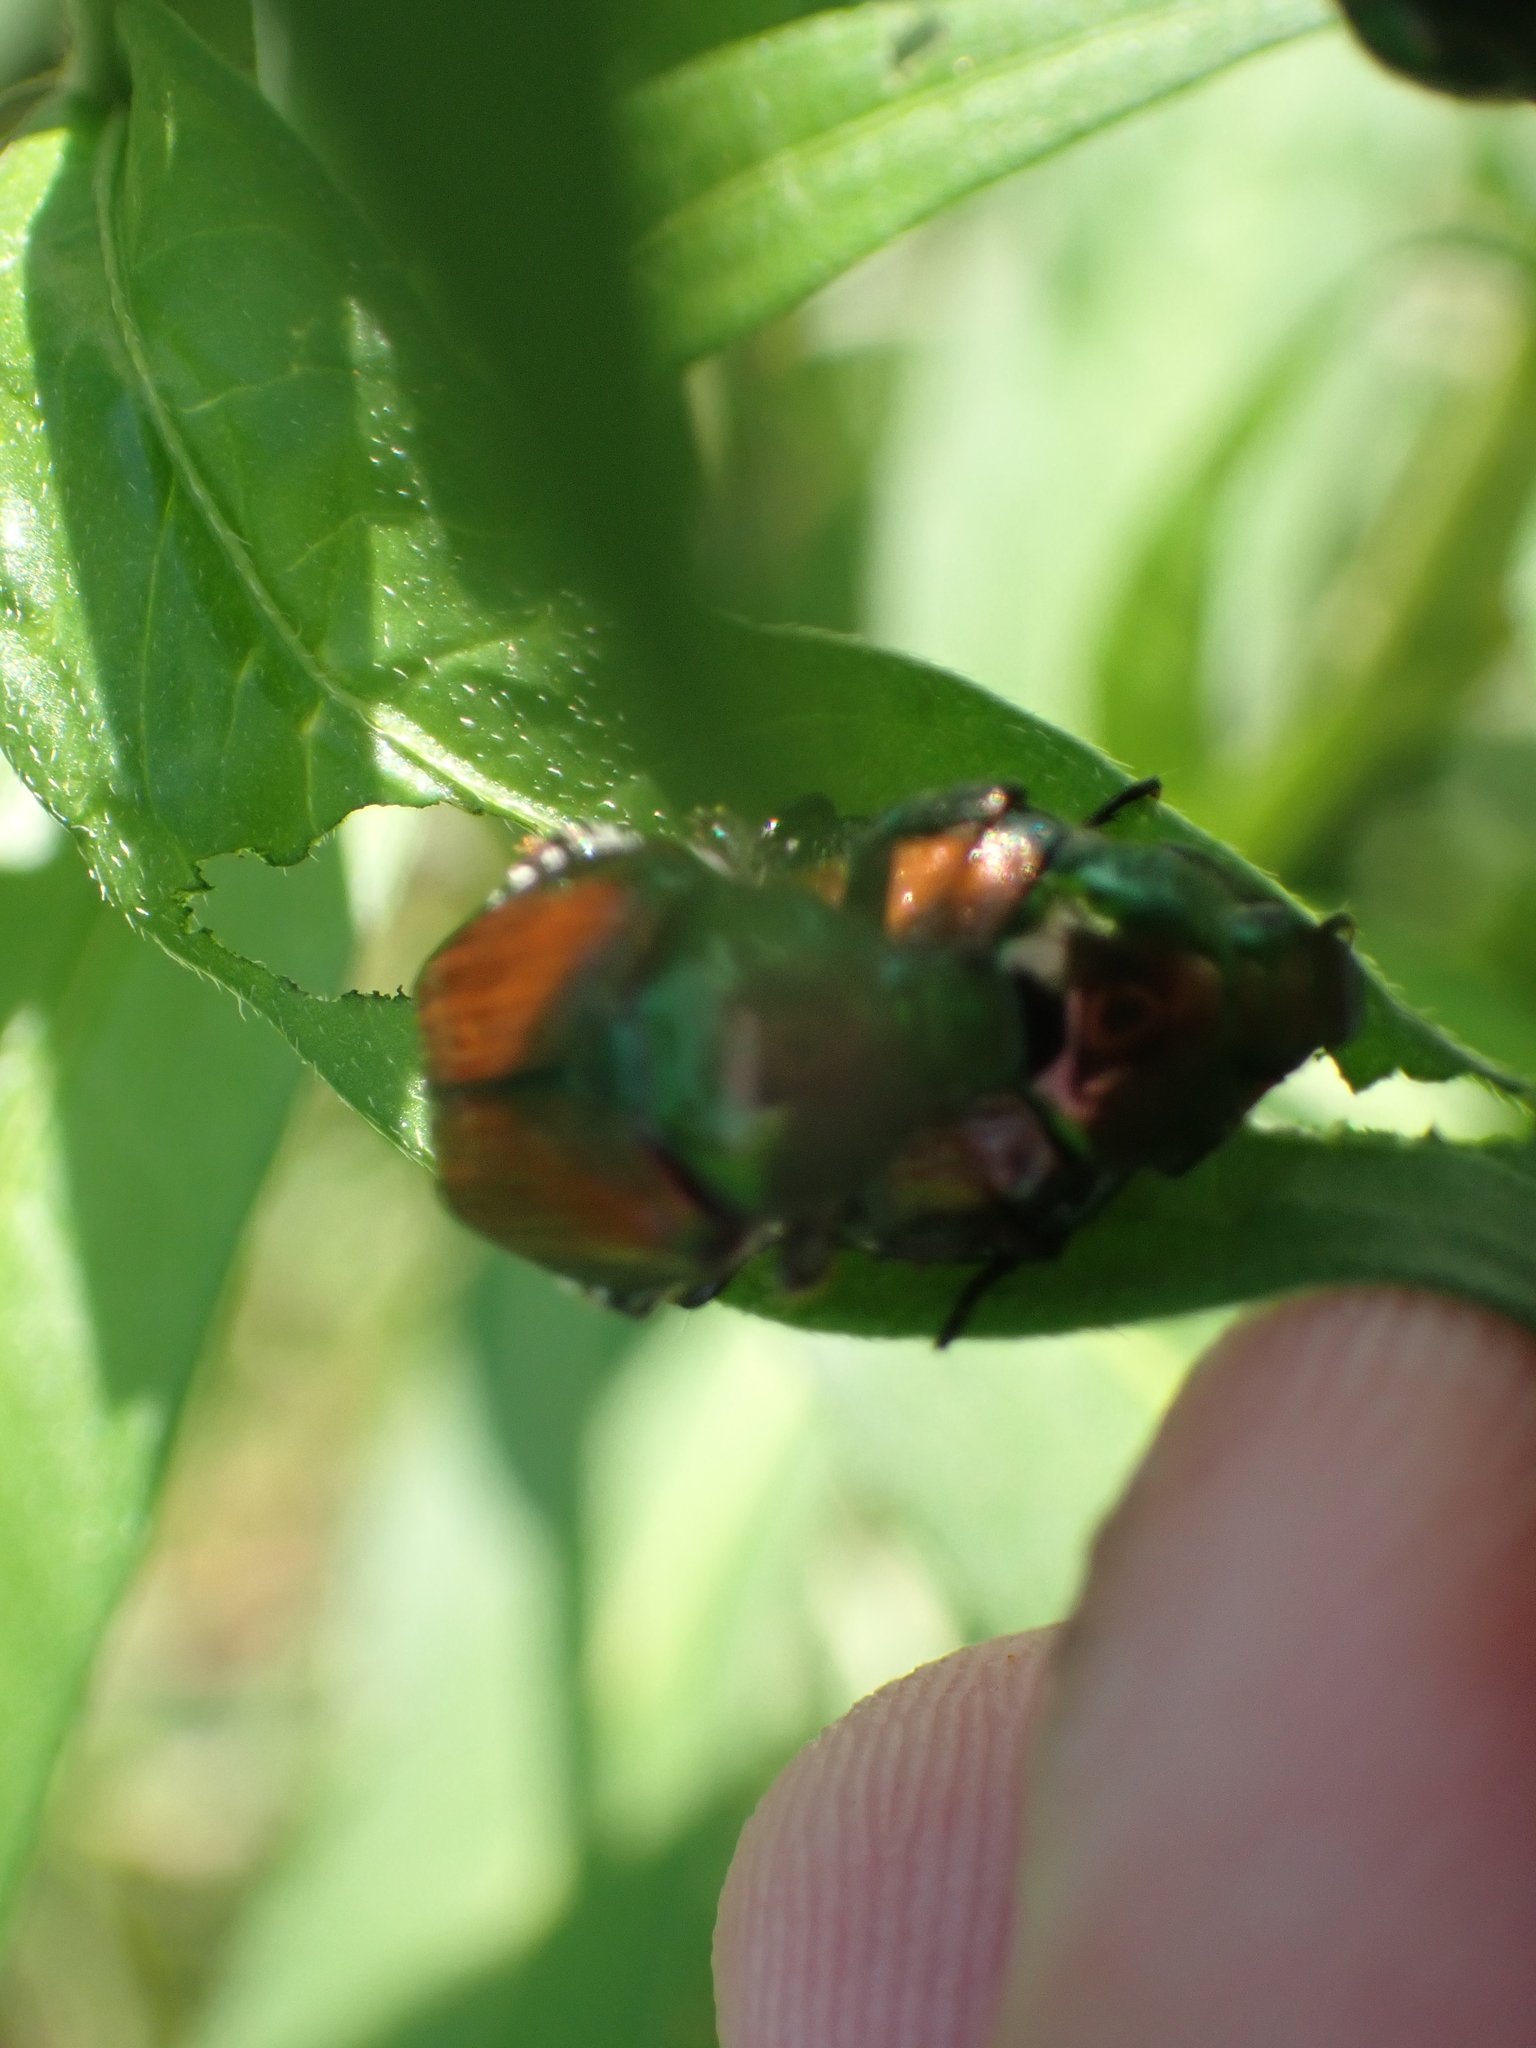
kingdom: Animalia
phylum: Arthropoda
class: Insecta
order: Coleoptera
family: Scarabaeidae
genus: Popillia
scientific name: Popillia japonica
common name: Japanese beetle
